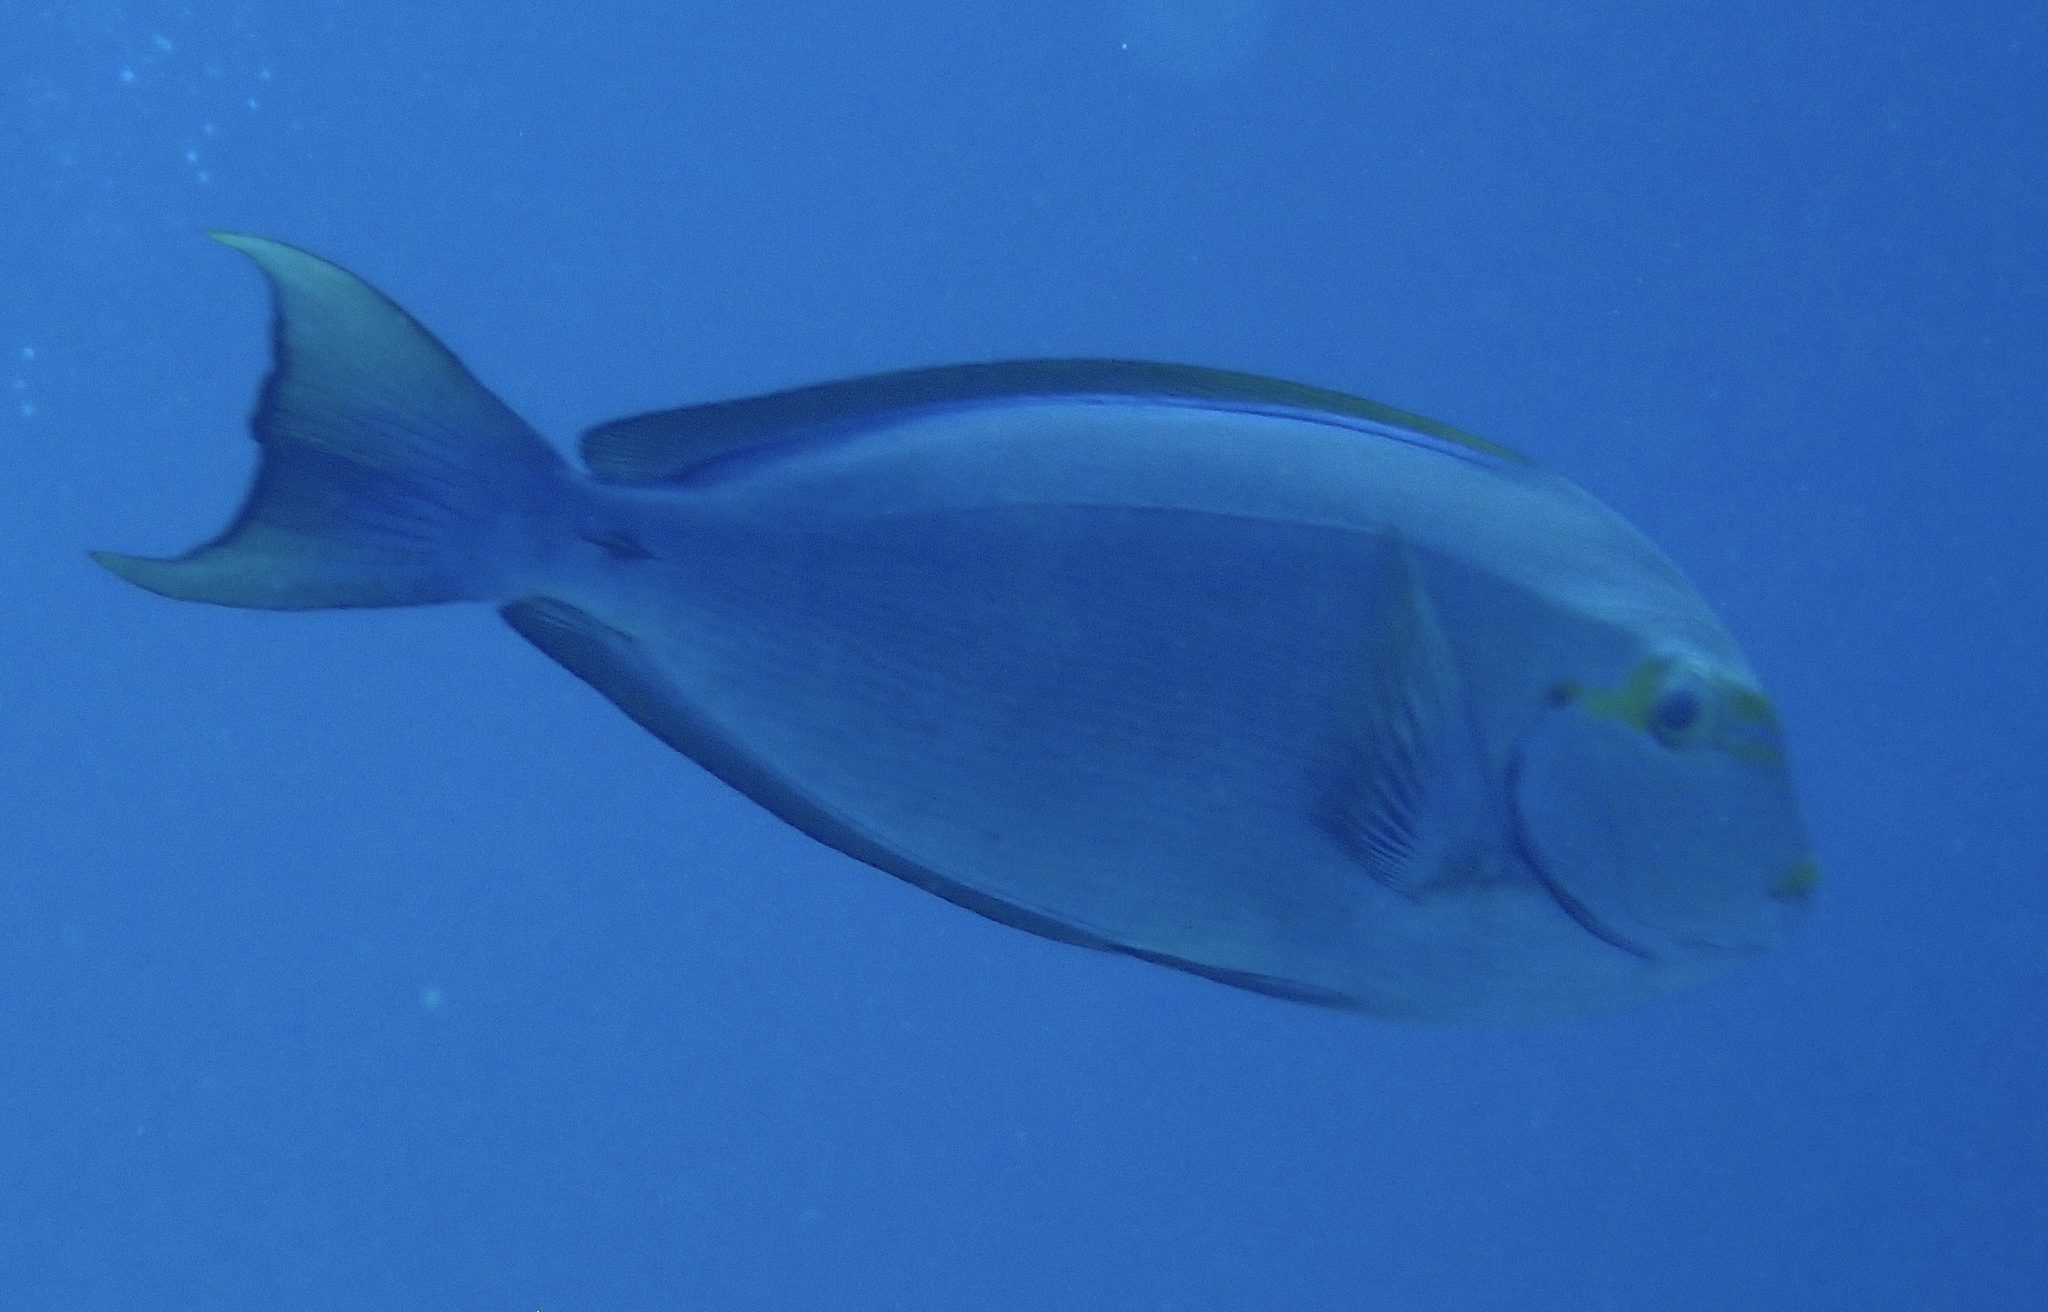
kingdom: Animalia
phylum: Chordata
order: Perciformes
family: Acanthuridae
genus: Acanthurus
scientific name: Acanthurus mata
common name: Bleeker's surgeonfish
